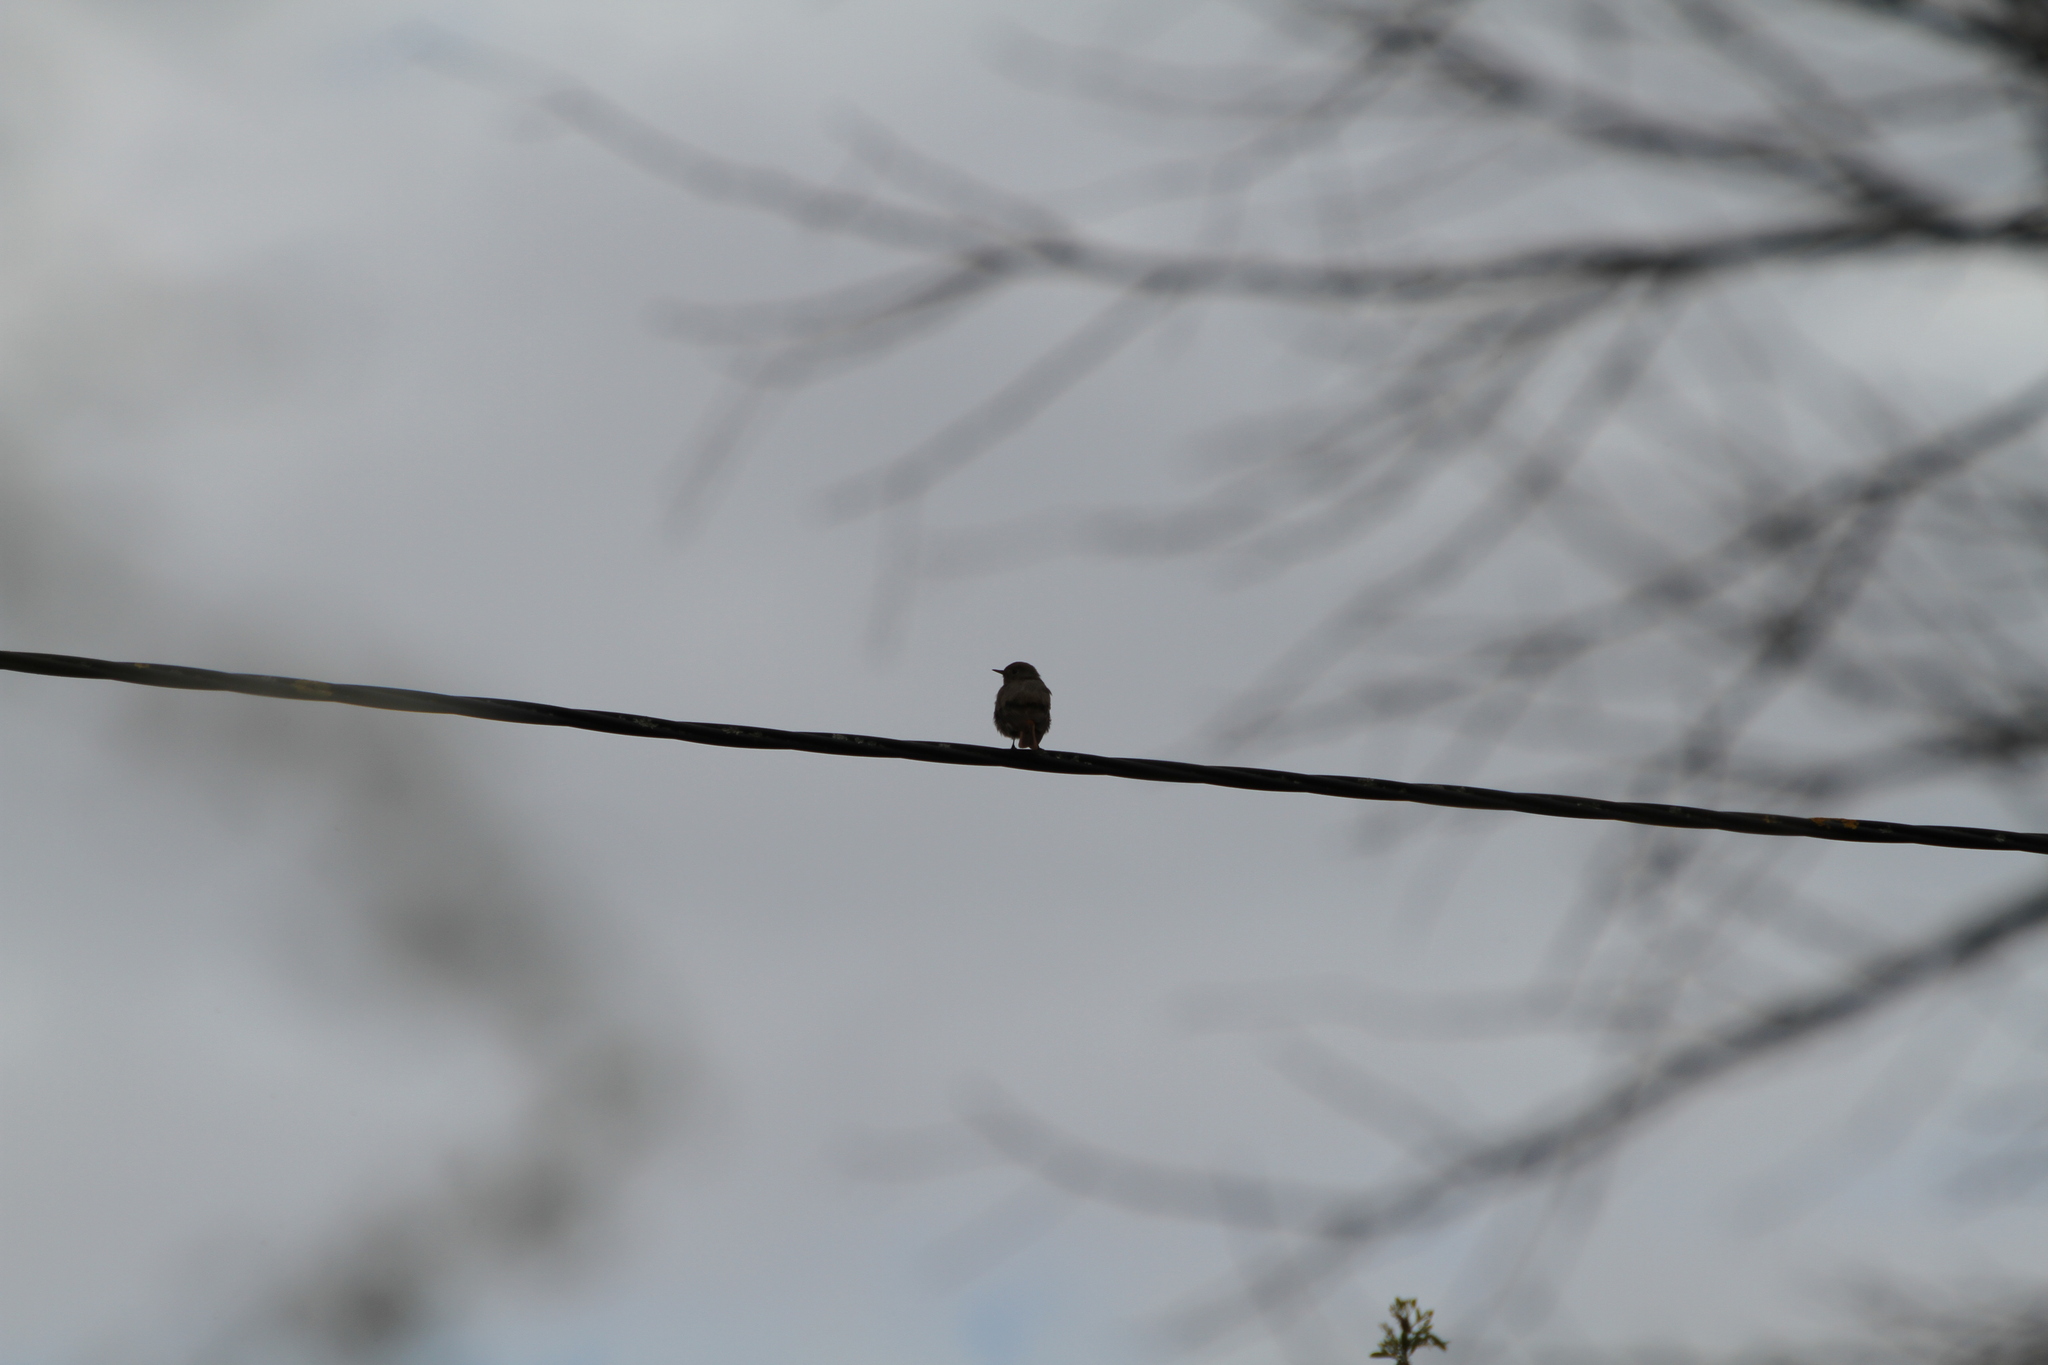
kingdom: Animalia
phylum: Chordata
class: Aves
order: Passeriformes
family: Muscicapidae
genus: Phoenicurus
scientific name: Phoenicurus ochruros
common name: Black redstart
